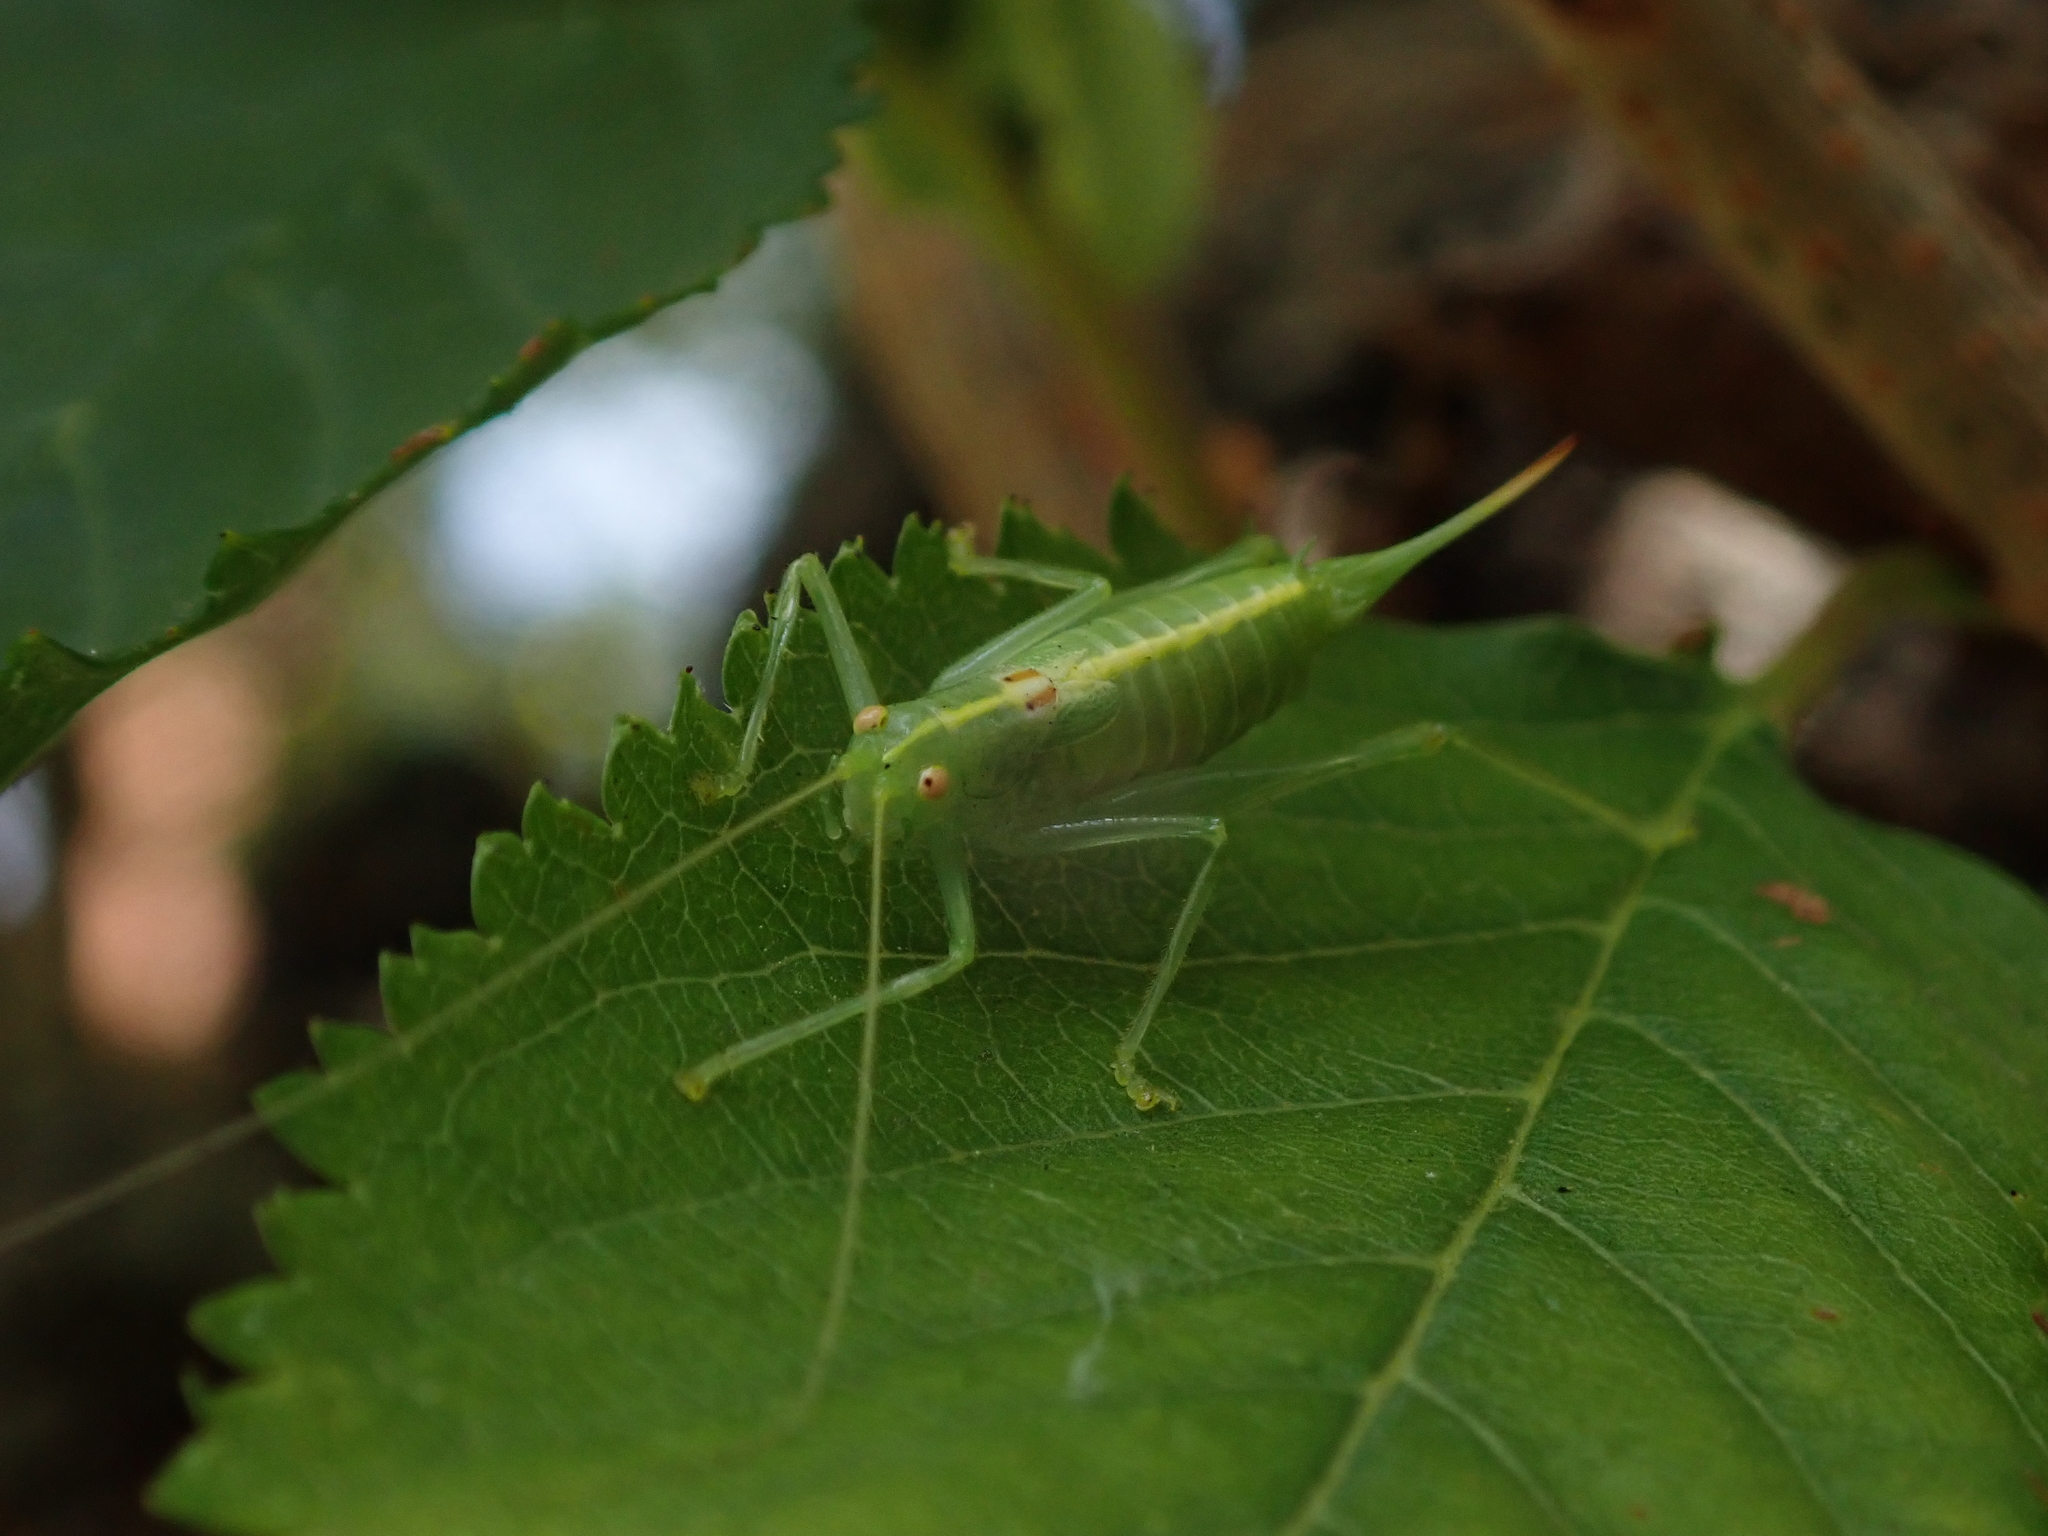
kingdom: Animalia
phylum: Arthropoda
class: Insecta
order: Orthoptera
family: Tettigoniidae
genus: Meconema
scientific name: Meconema meridionale
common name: Southern oak bush-cricket
